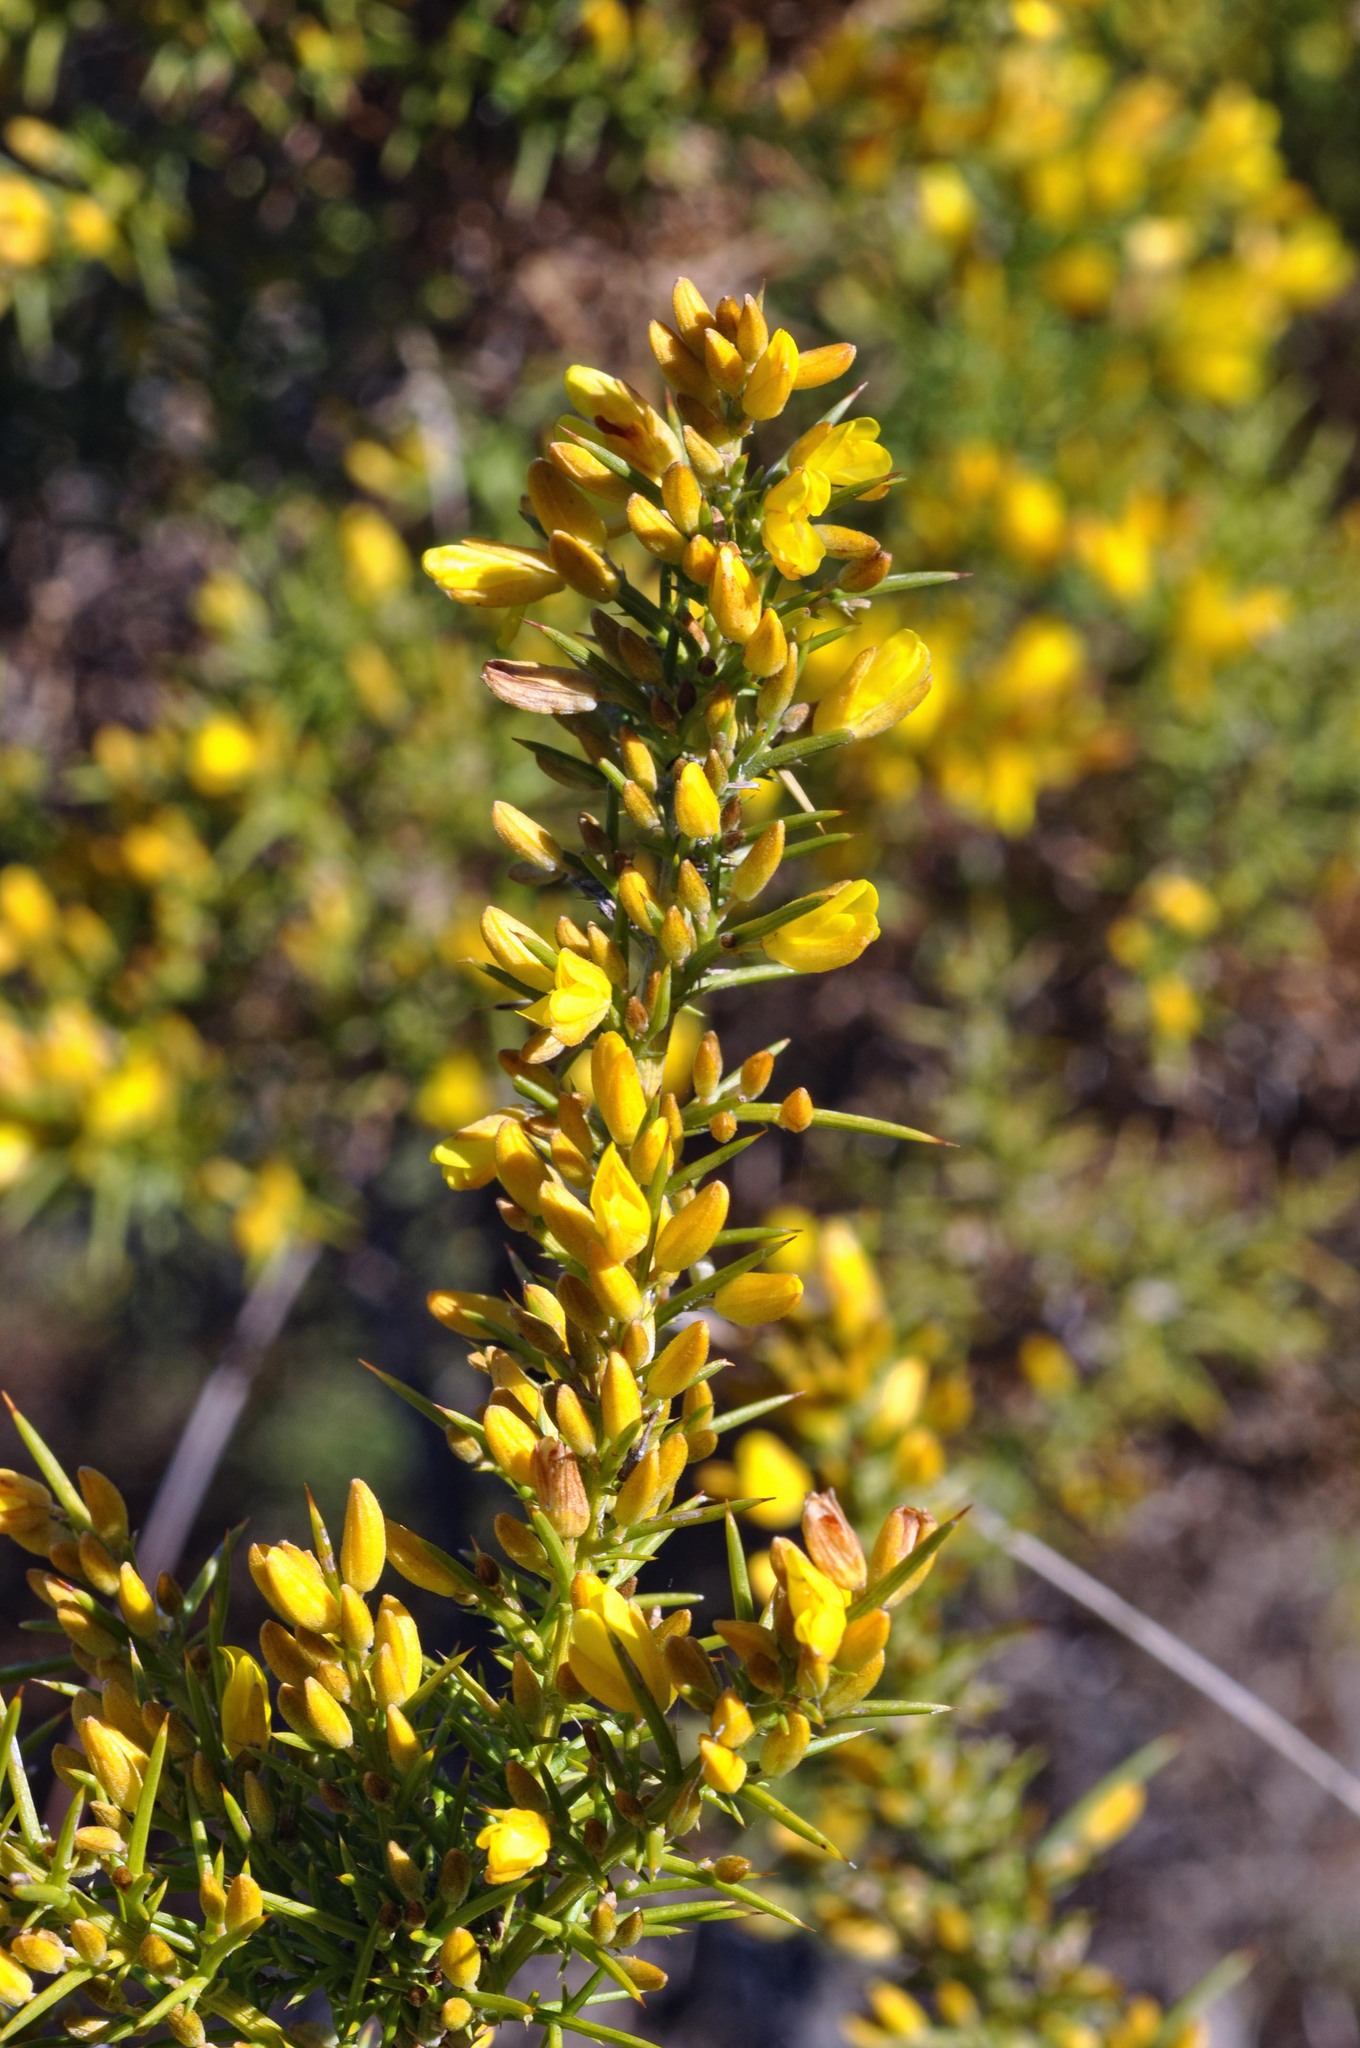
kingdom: Plantae
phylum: Tracheophyta
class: Magnoliopsida
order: Fabales
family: Fabaceae
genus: Ulex
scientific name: Ulex parviflorus
